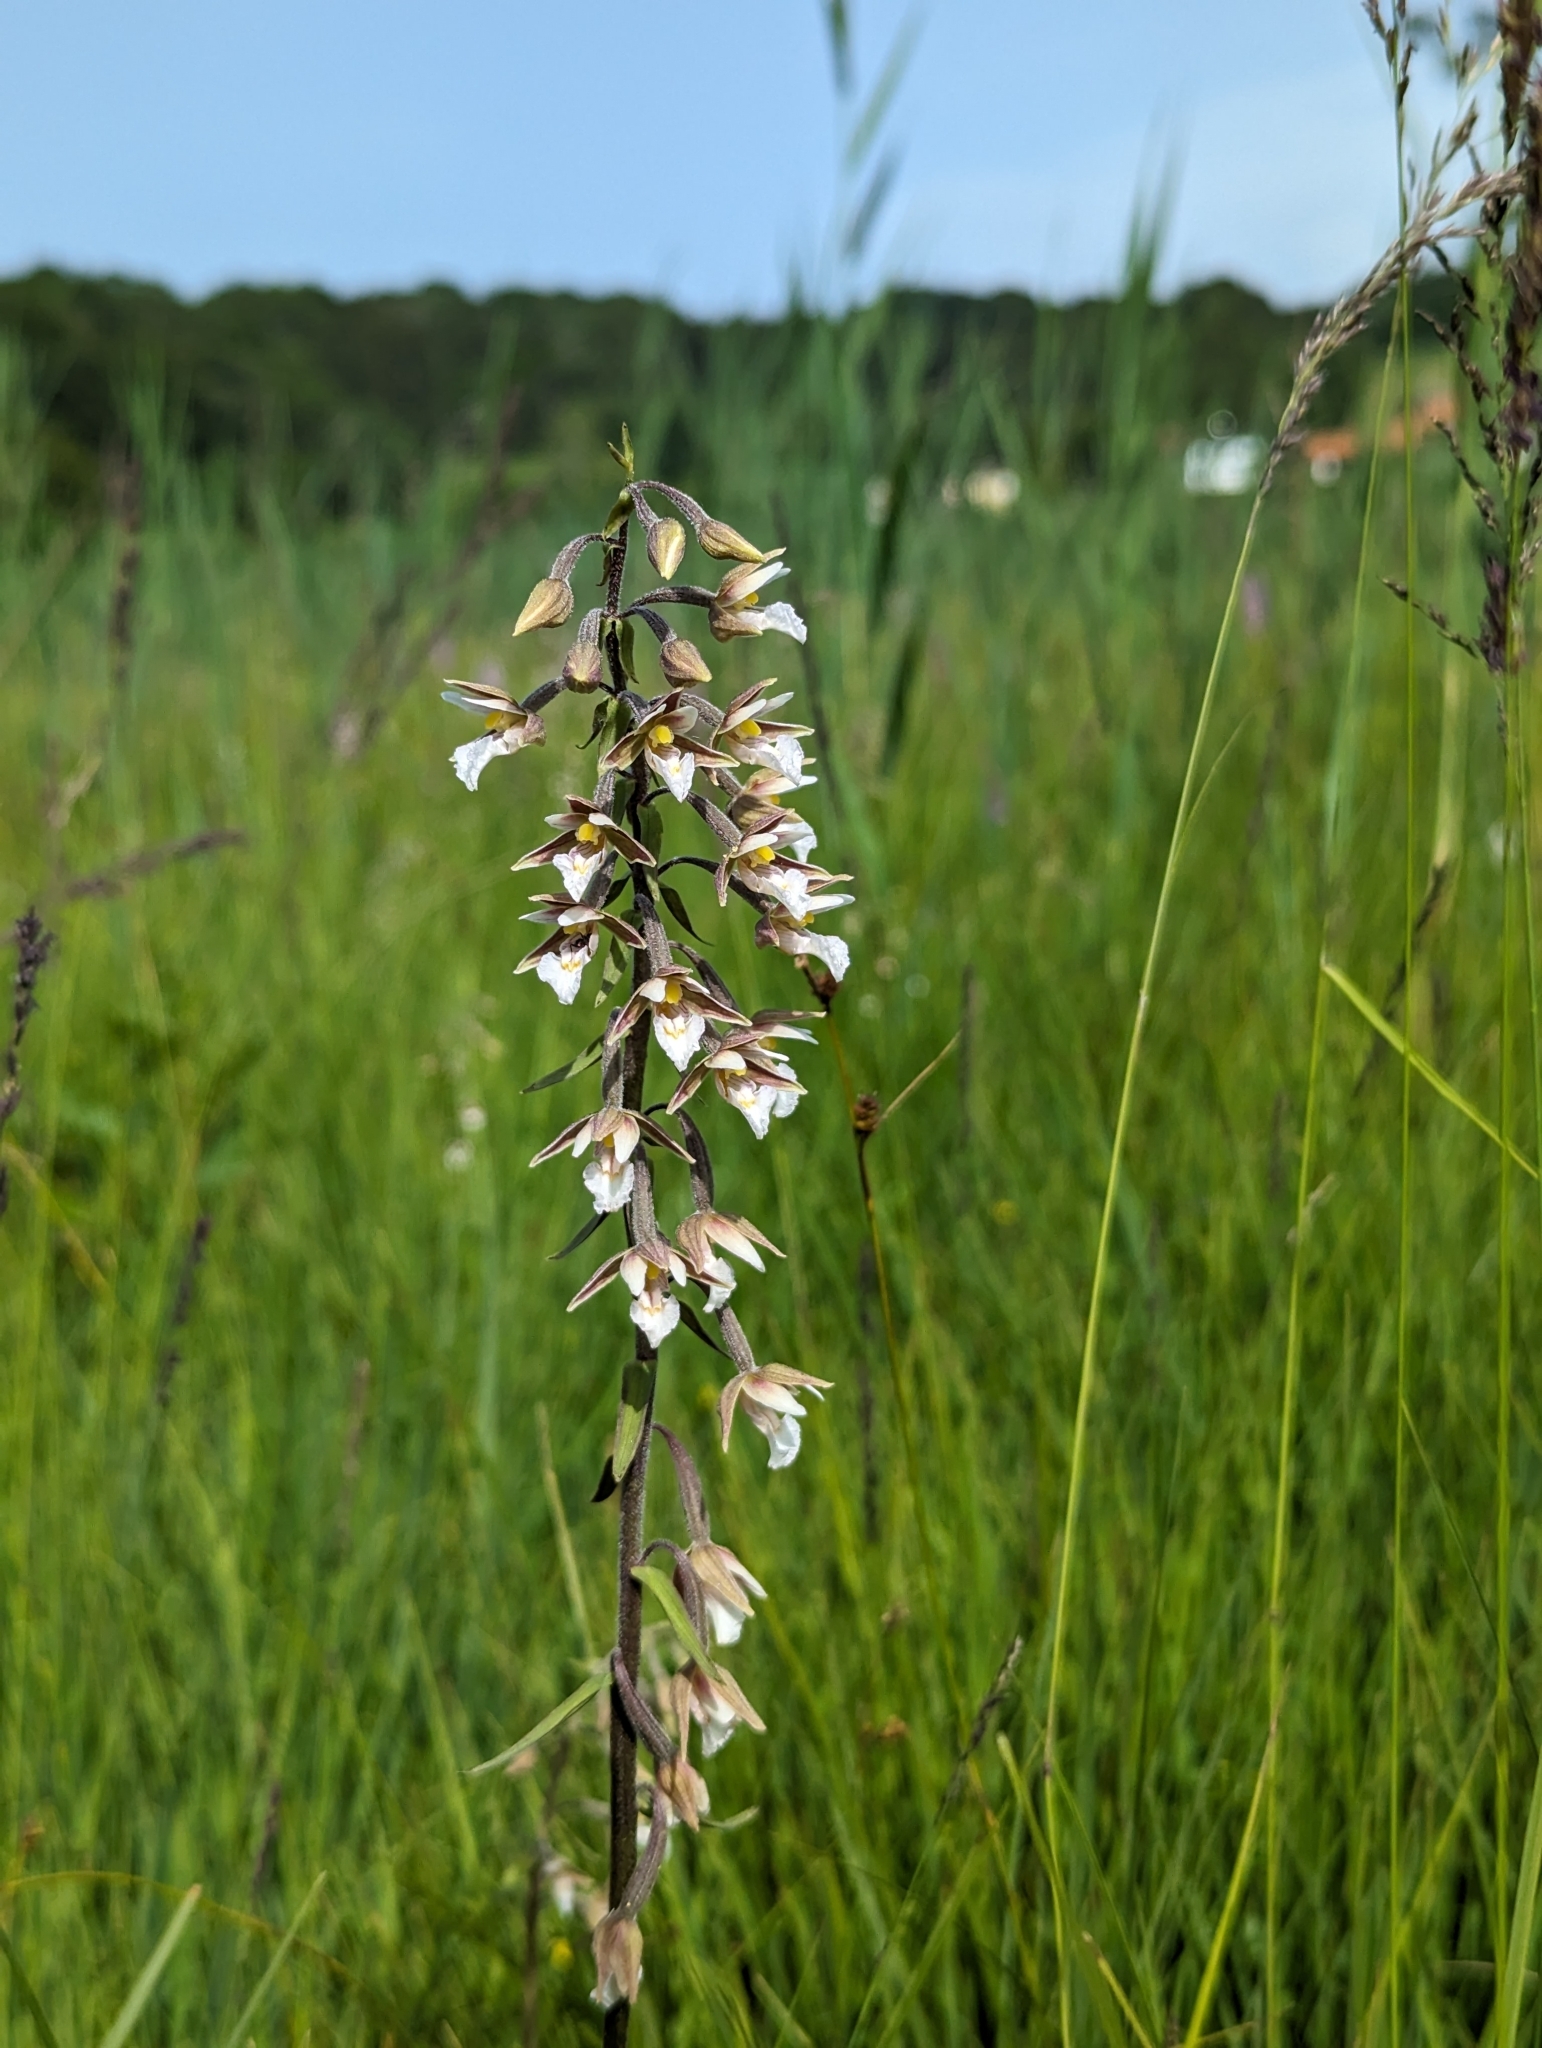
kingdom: Plantae
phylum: Tracheophyta
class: Liliopsida
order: Asparagales
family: Orchidaceae
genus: Epipactis
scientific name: Epipactis palustris
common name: Marsh helleborine
